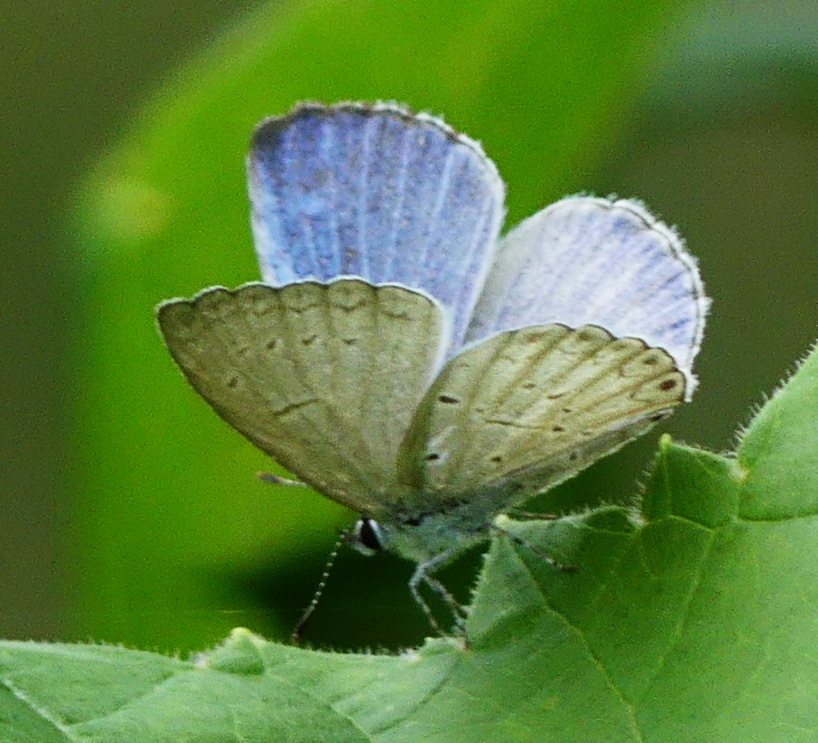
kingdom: Animalia
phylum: Arthropoda
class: Insecta
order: Lepidoptera
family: Lycaenidae
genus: Cyaniris
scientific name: Cyaniris neglecta
